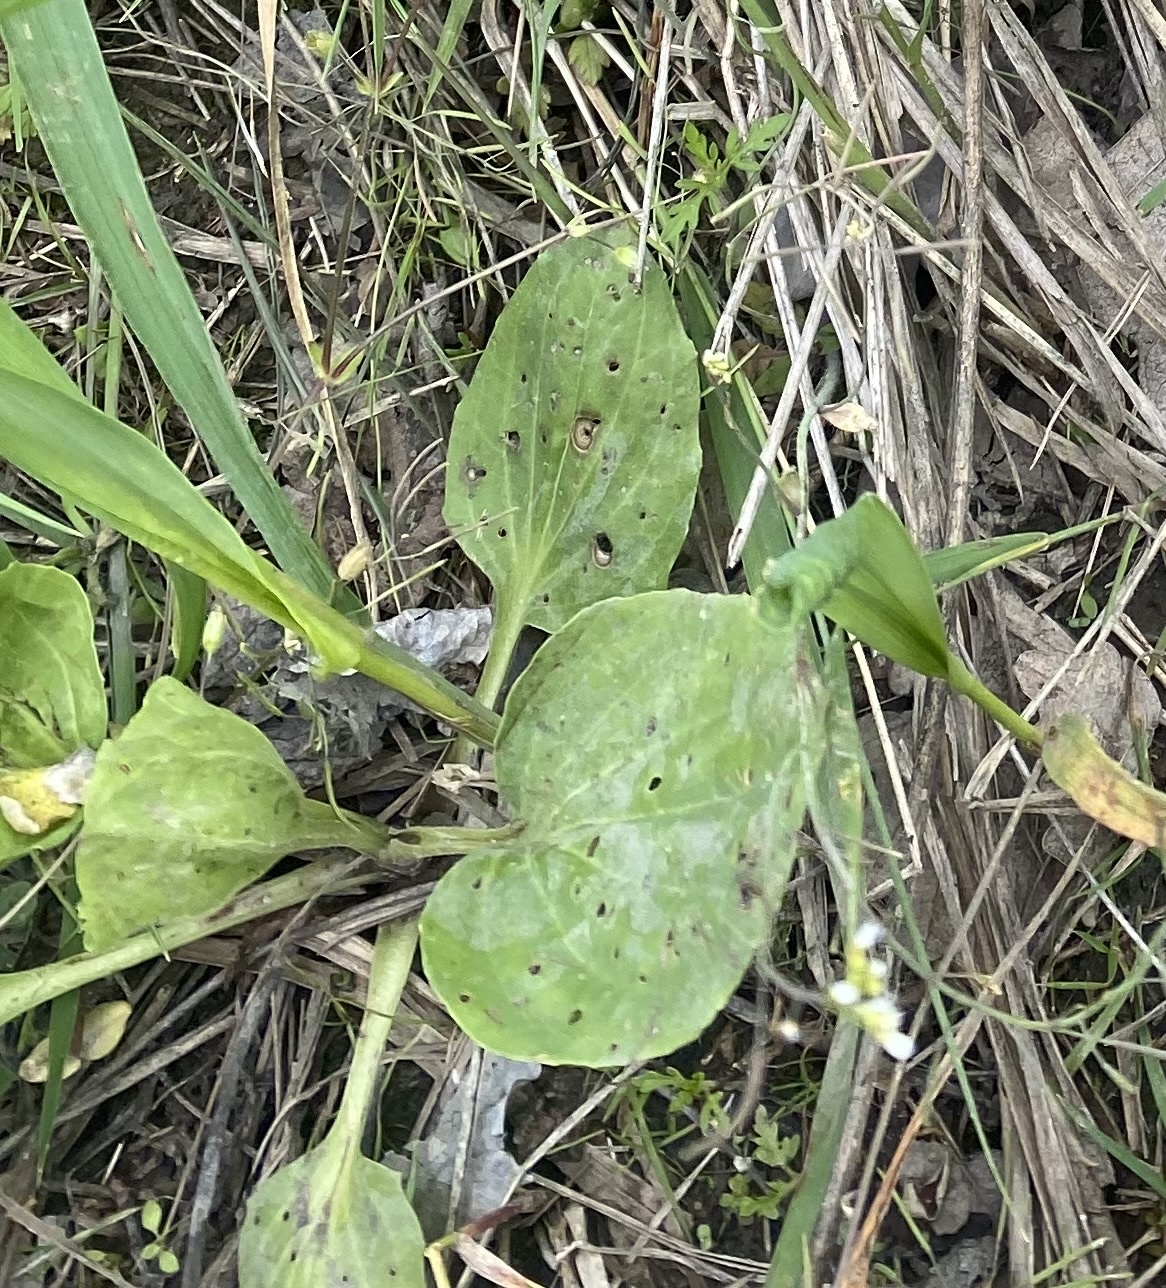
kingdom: Plantae
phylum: Tracheophyta
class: Magnoliopsida
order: Lamiales
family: Plantaginaceae
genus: Plantago
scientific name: Plantago major
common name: Common plantain
